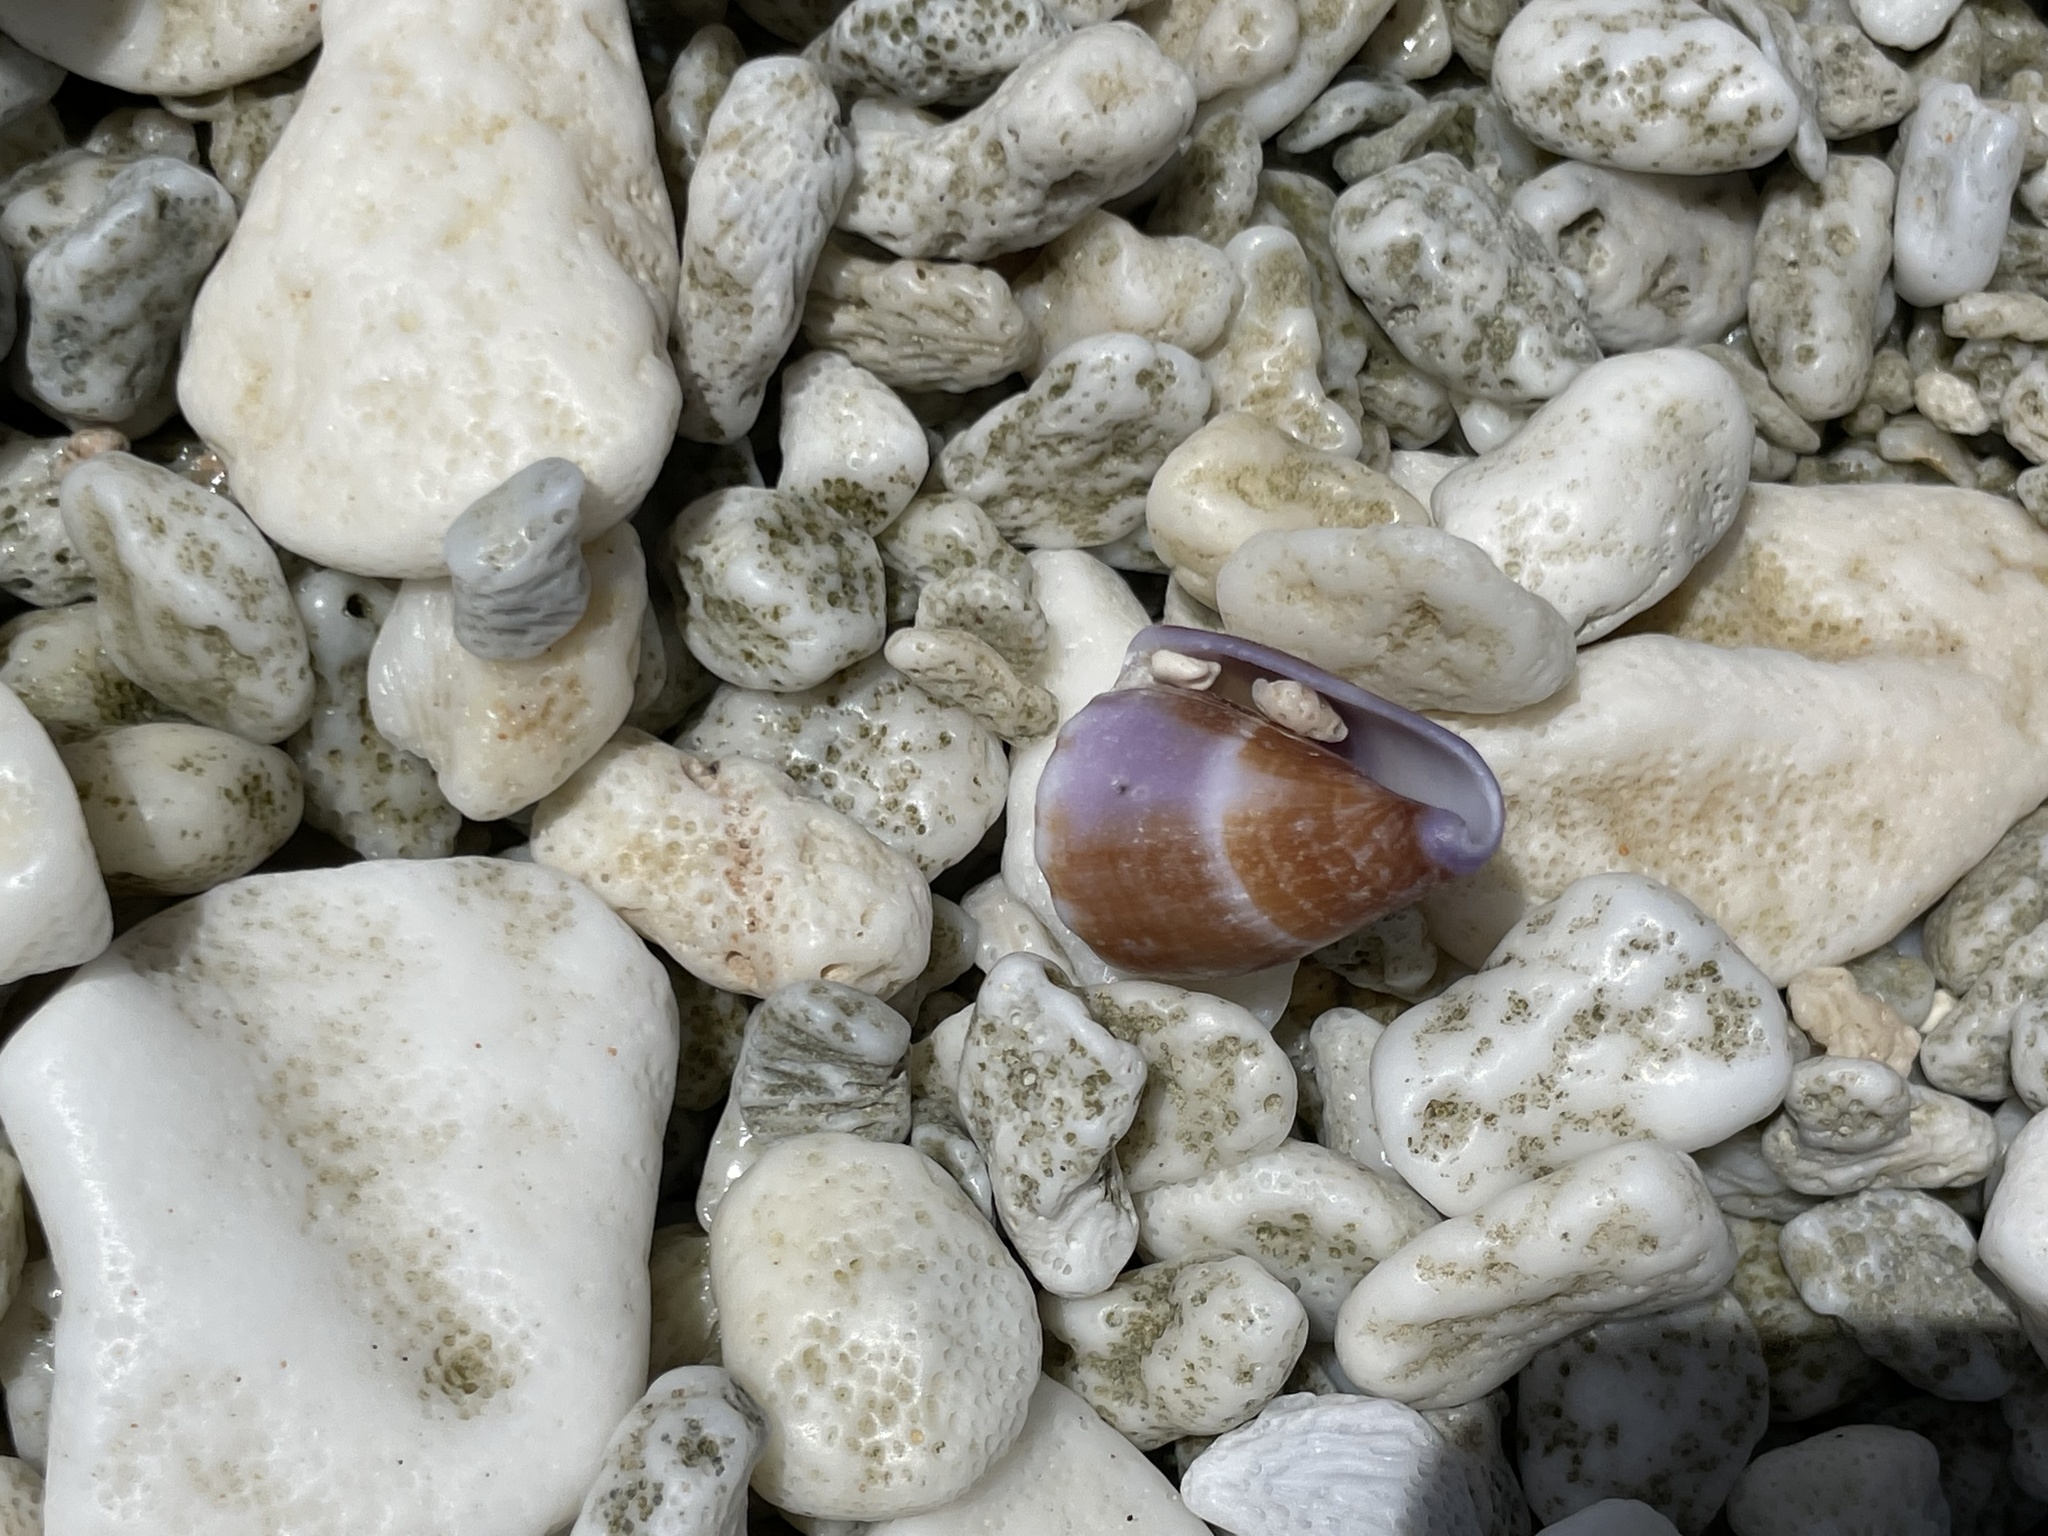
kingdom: Animalia
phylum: Mollusca
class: Gastropoda
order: Neogastropoda
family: Conidae
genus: Conus
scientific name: Conus diadema
